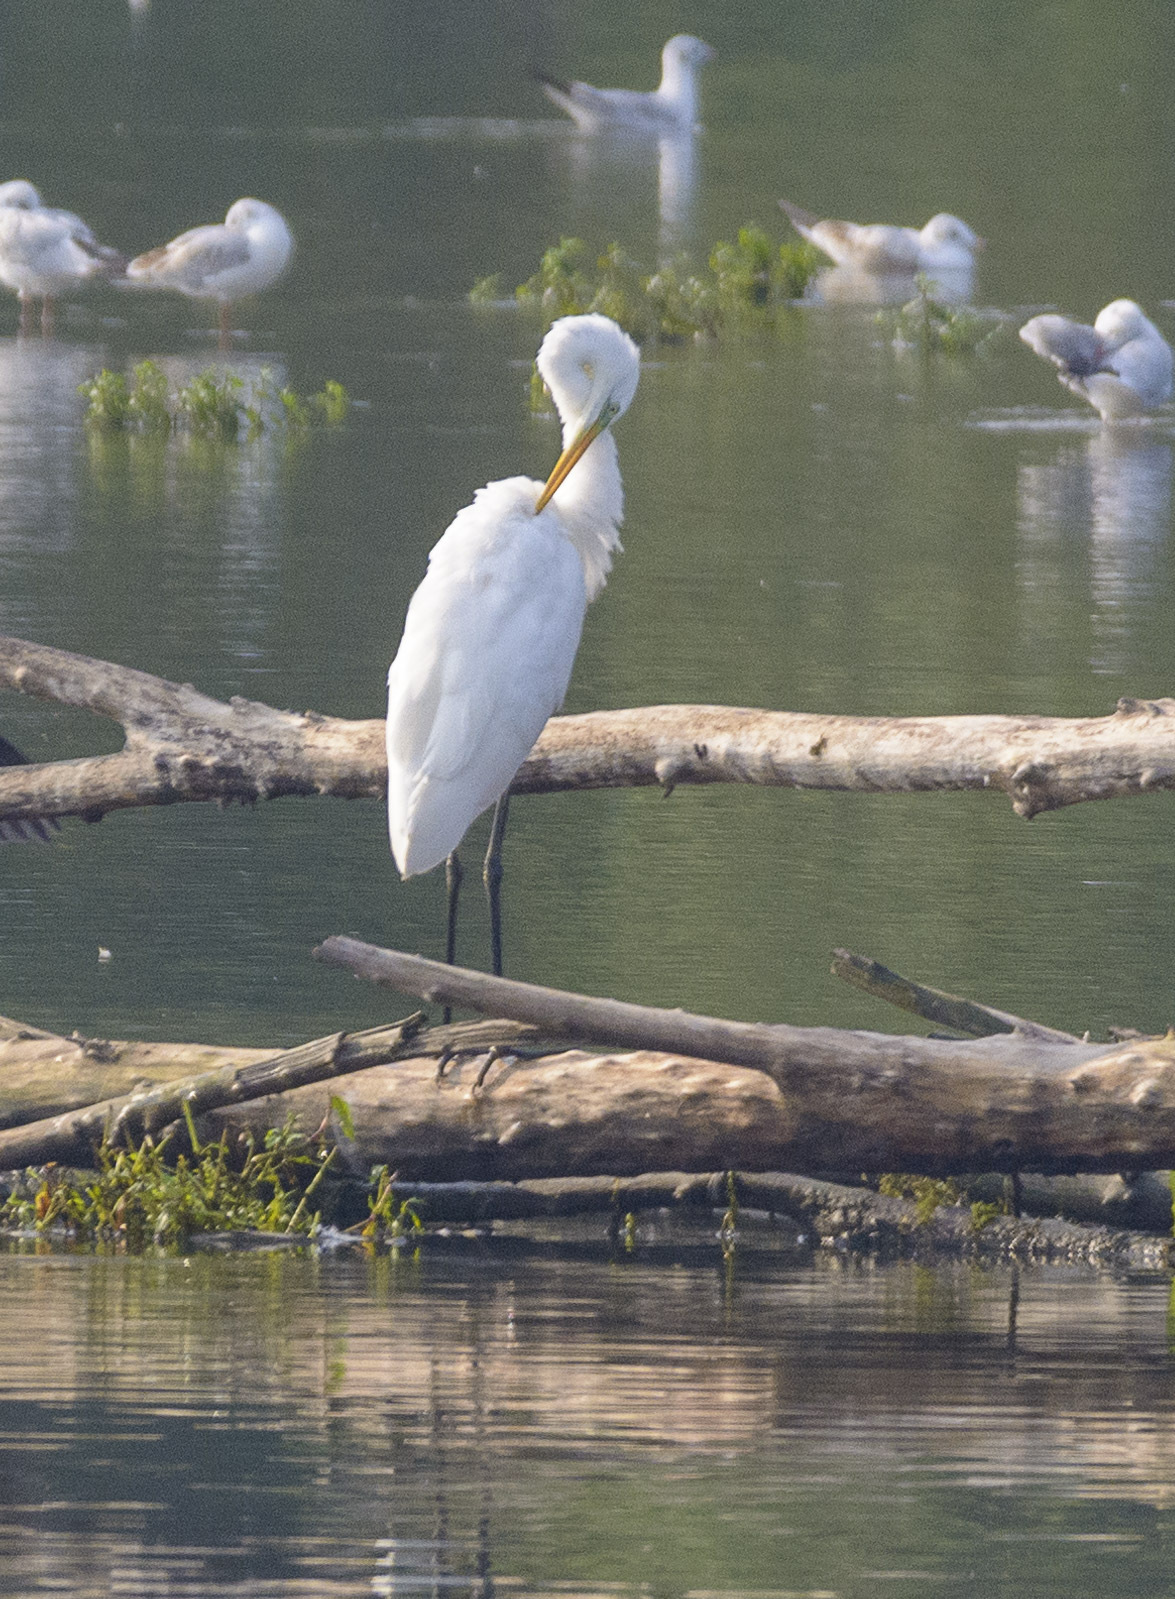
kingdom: Animalia
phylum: Chordata
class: Aves
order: Pelecaniformes
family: Ardeidae
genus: Ardea
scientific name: Ardea alba
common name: Great egret
